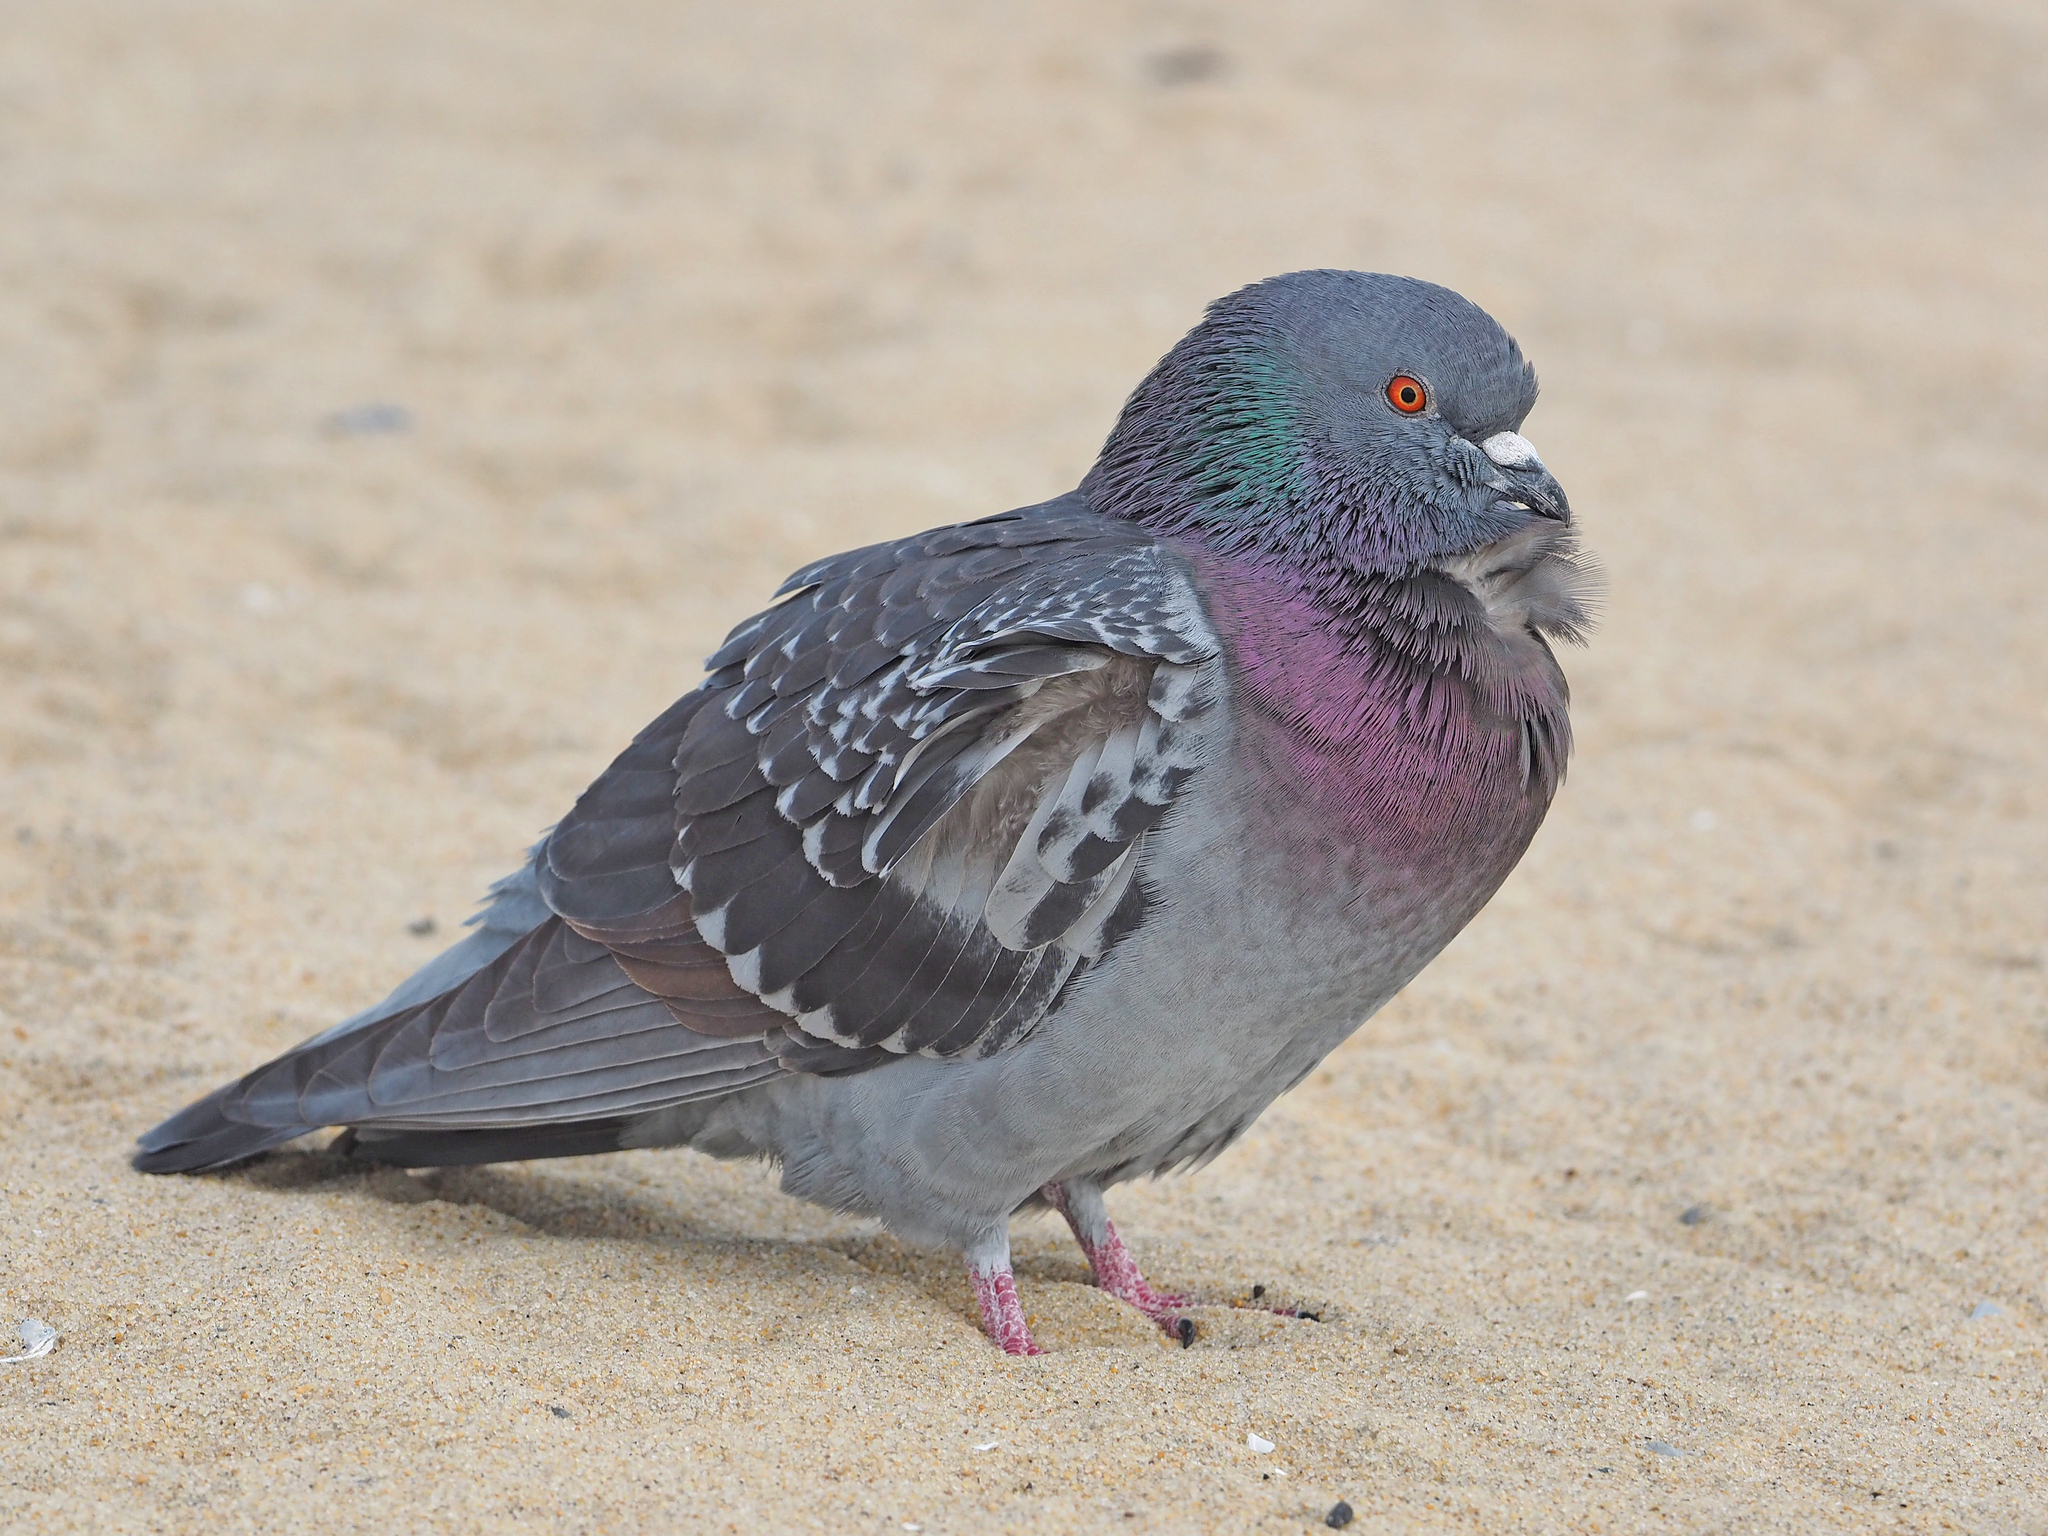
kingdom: Animalia
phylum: Chordata
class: Aves
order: Columbiformes
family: Columbidae
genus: Columba
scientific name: Columba livia
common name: Rock pigeon
